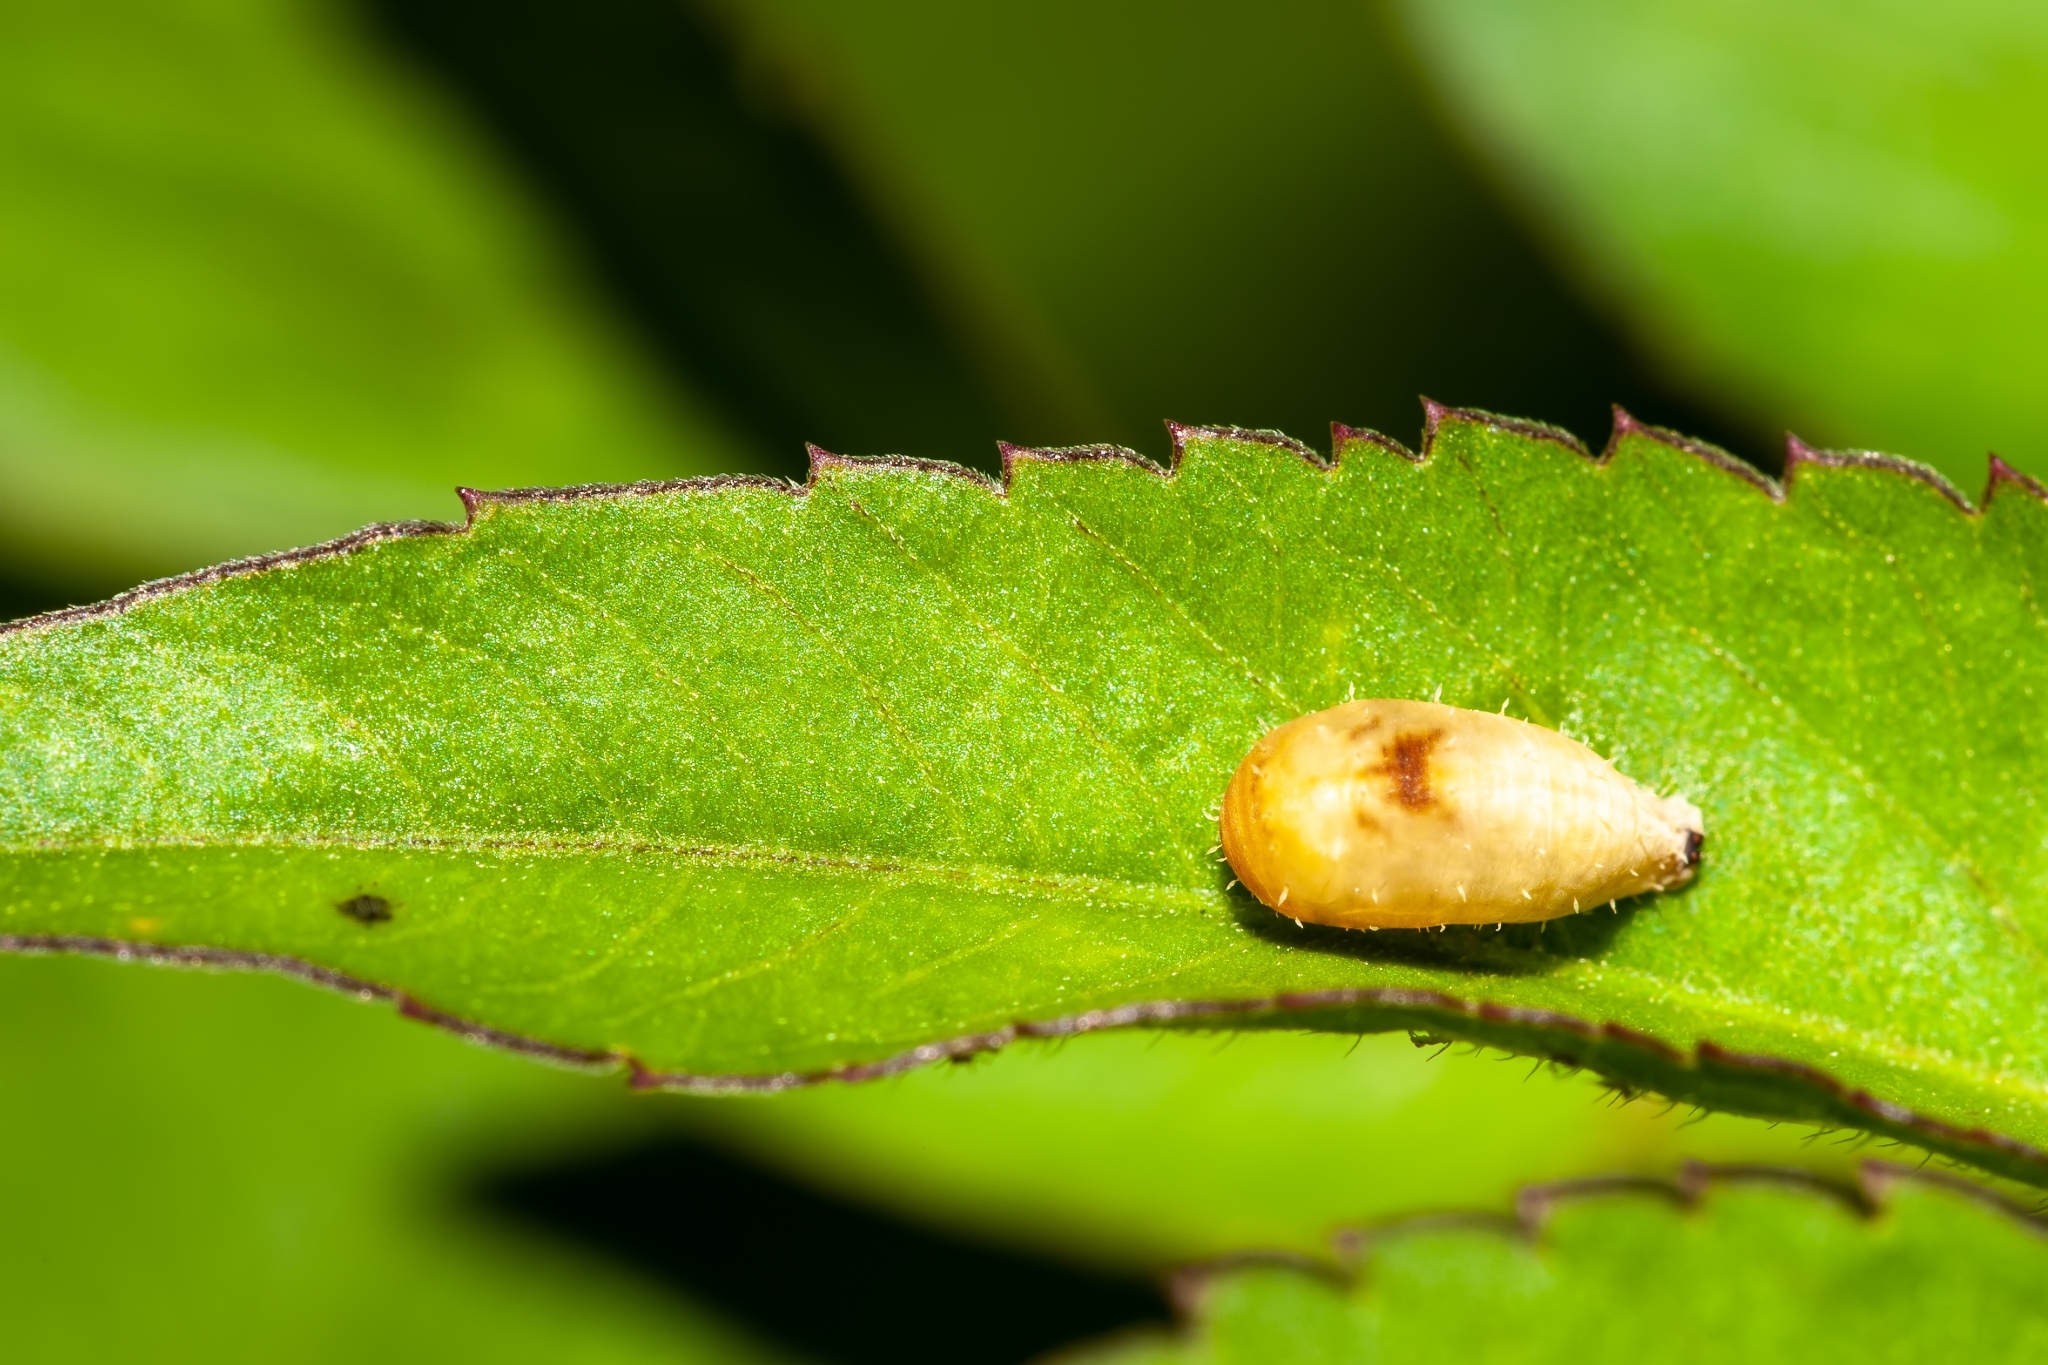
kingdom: Animalia
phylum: Arthropoda
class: Insecta
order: Diptera
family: Syrphidae
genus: Dioprosopa
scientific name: Dioprosopa clavatus
